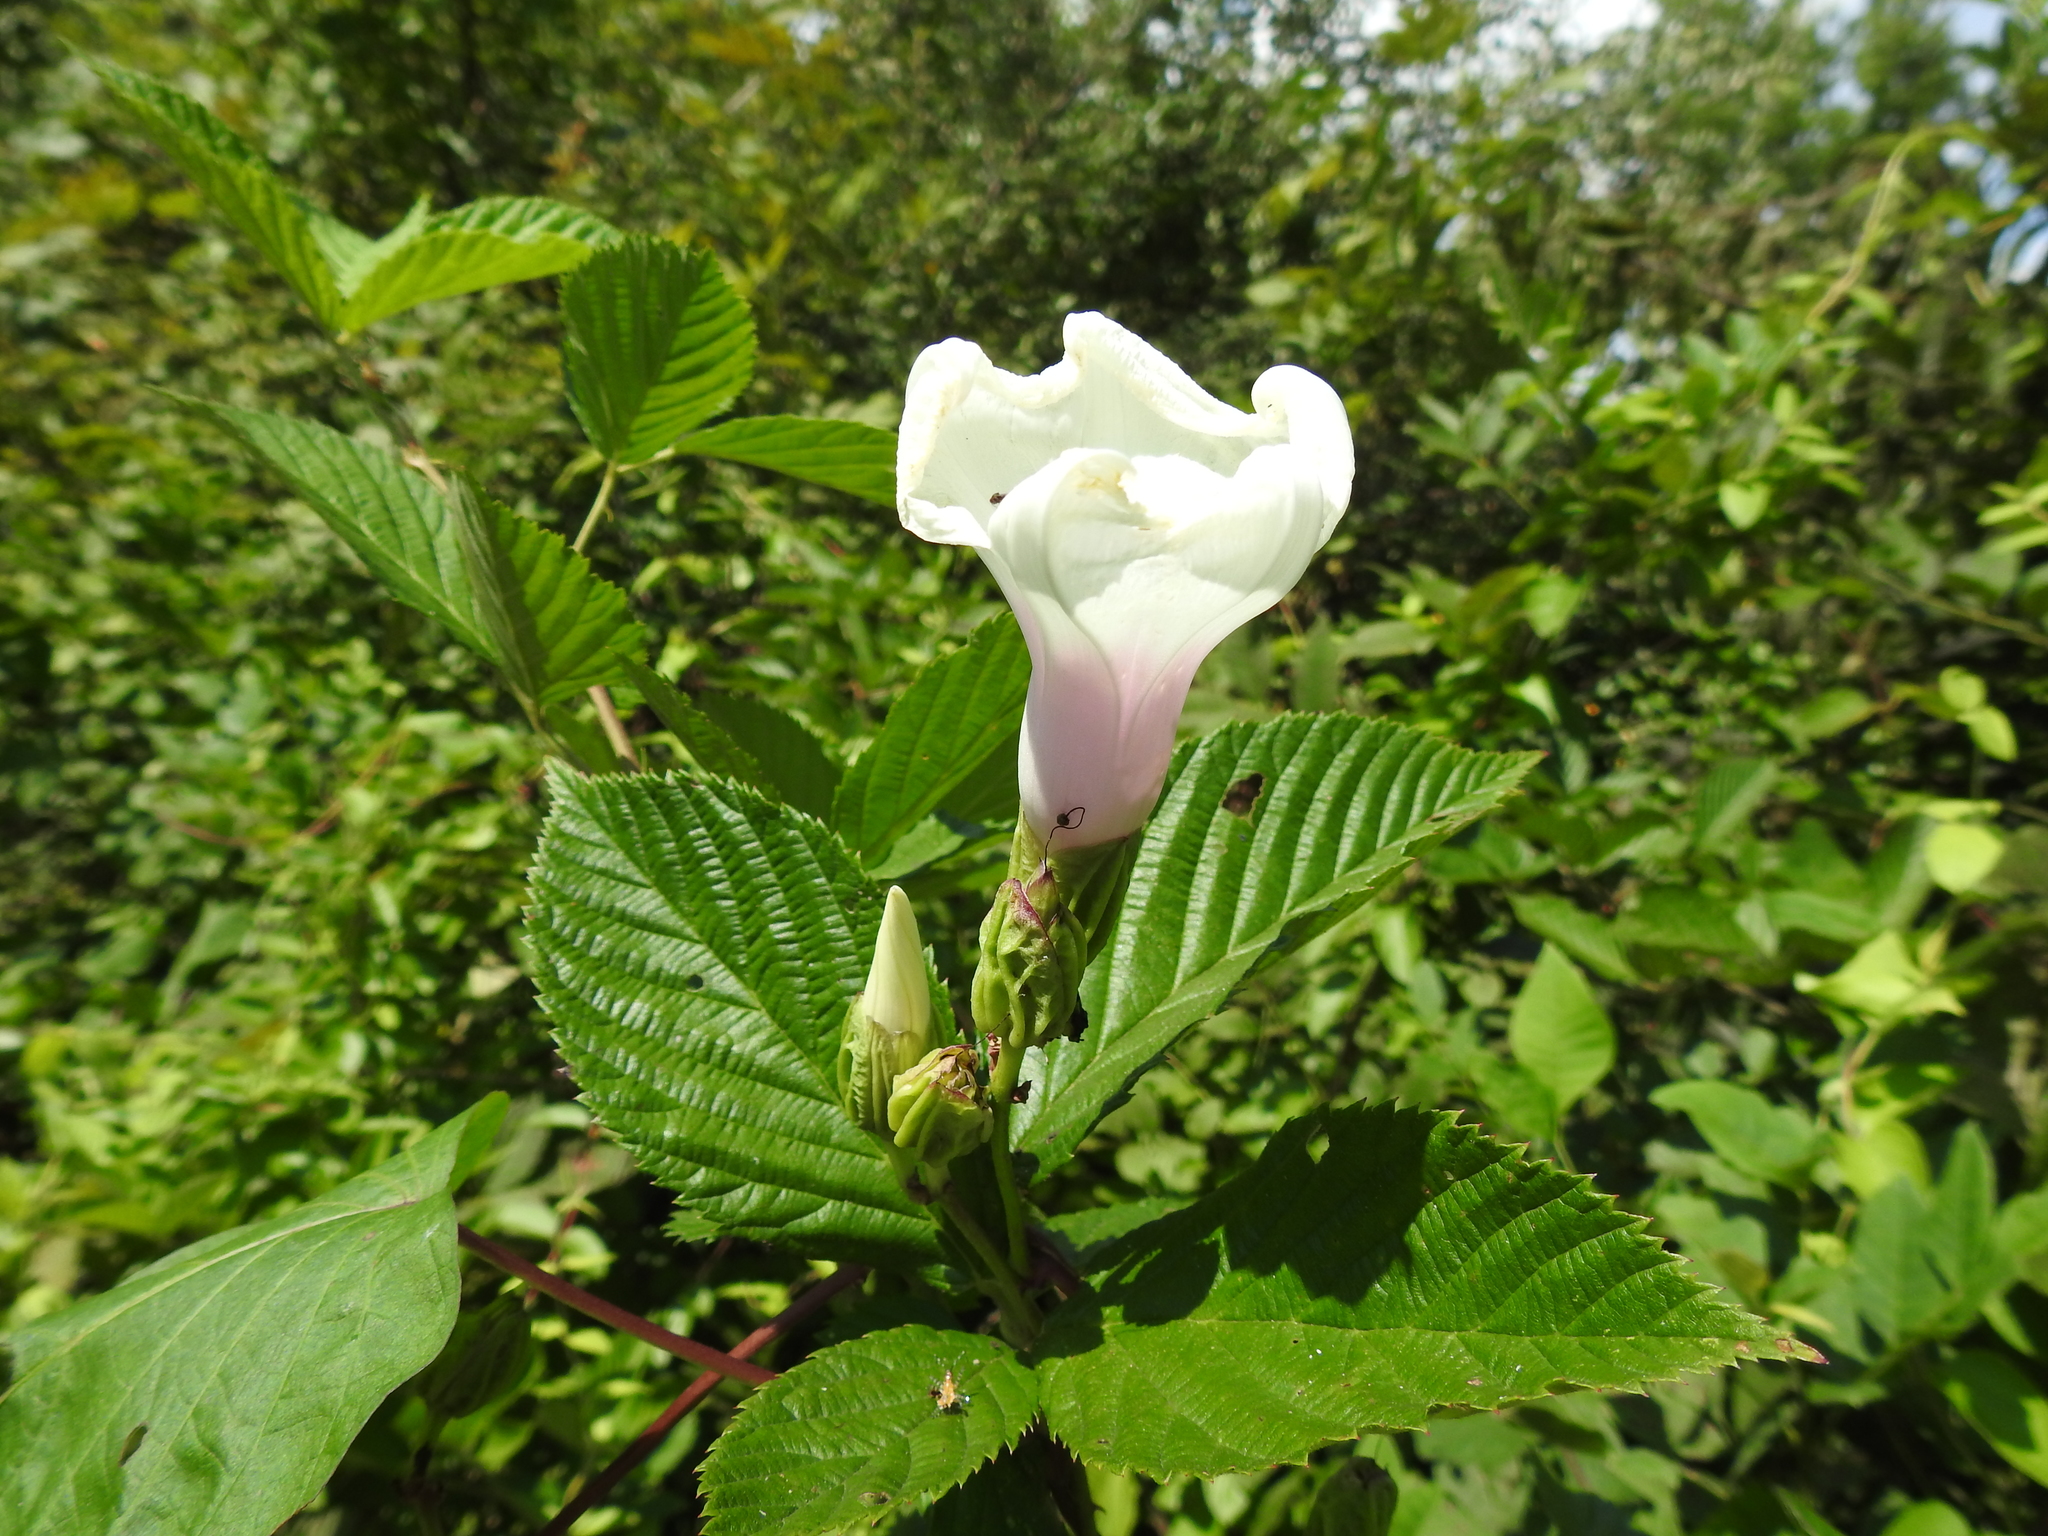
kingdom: Plantae
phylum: Tracheophyta
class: Magnoliopsida
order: Solanales
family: Convolvulaceae
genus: Ipomoea
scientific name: Ipomoea pandurata
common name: Man-of-the-earth
